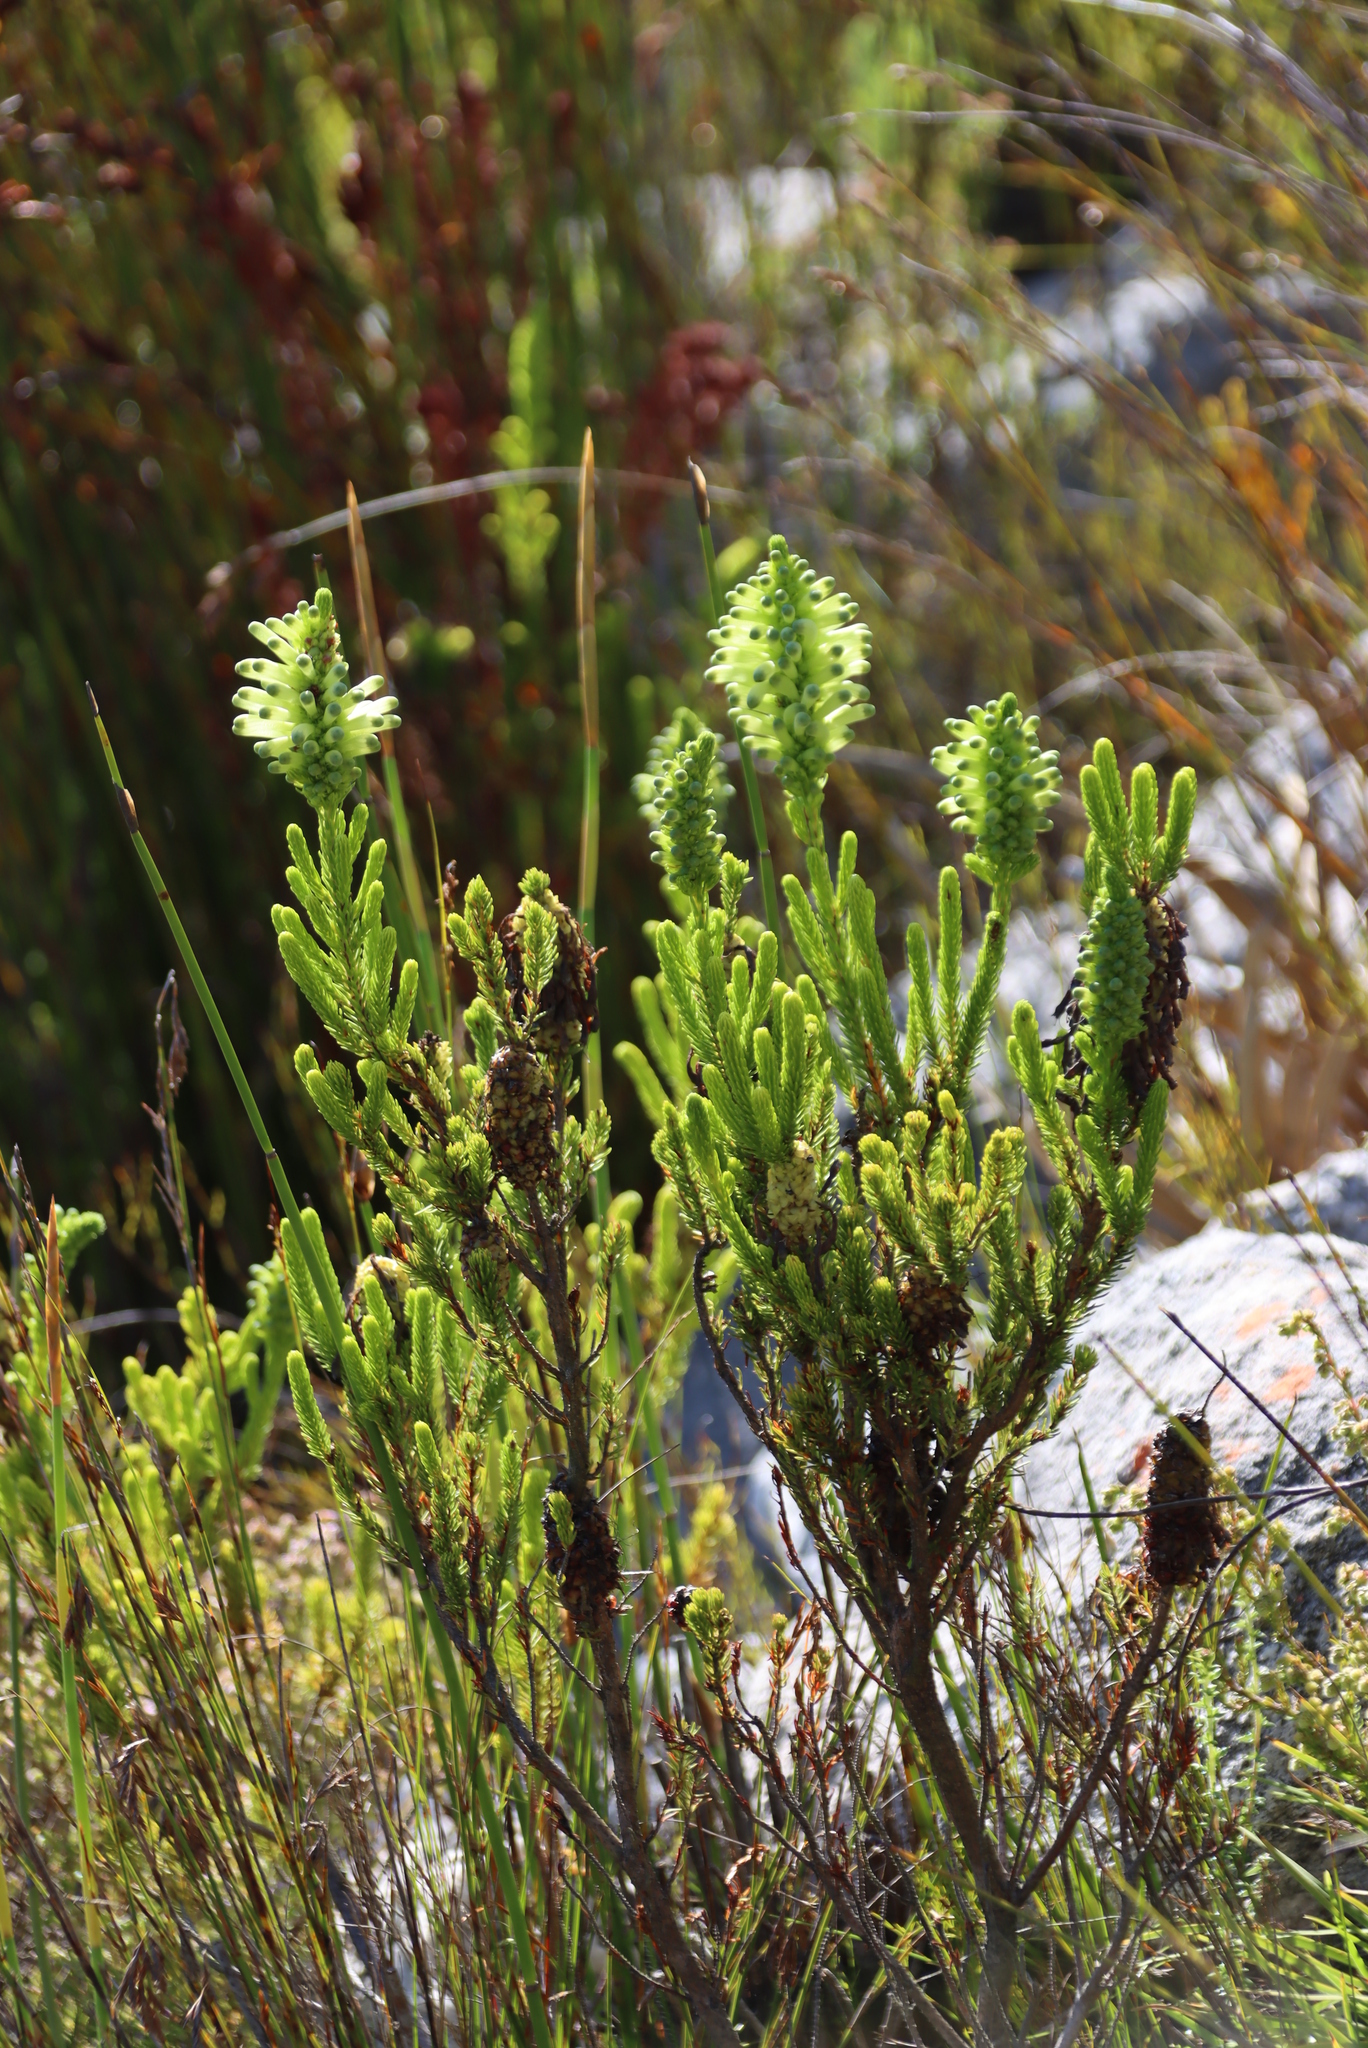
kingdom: Plantae
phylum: Tracheophyta
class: Magnoliopsida
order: Ericales
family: Ericaceae
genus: Erica
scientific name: Erica sessiliflora
